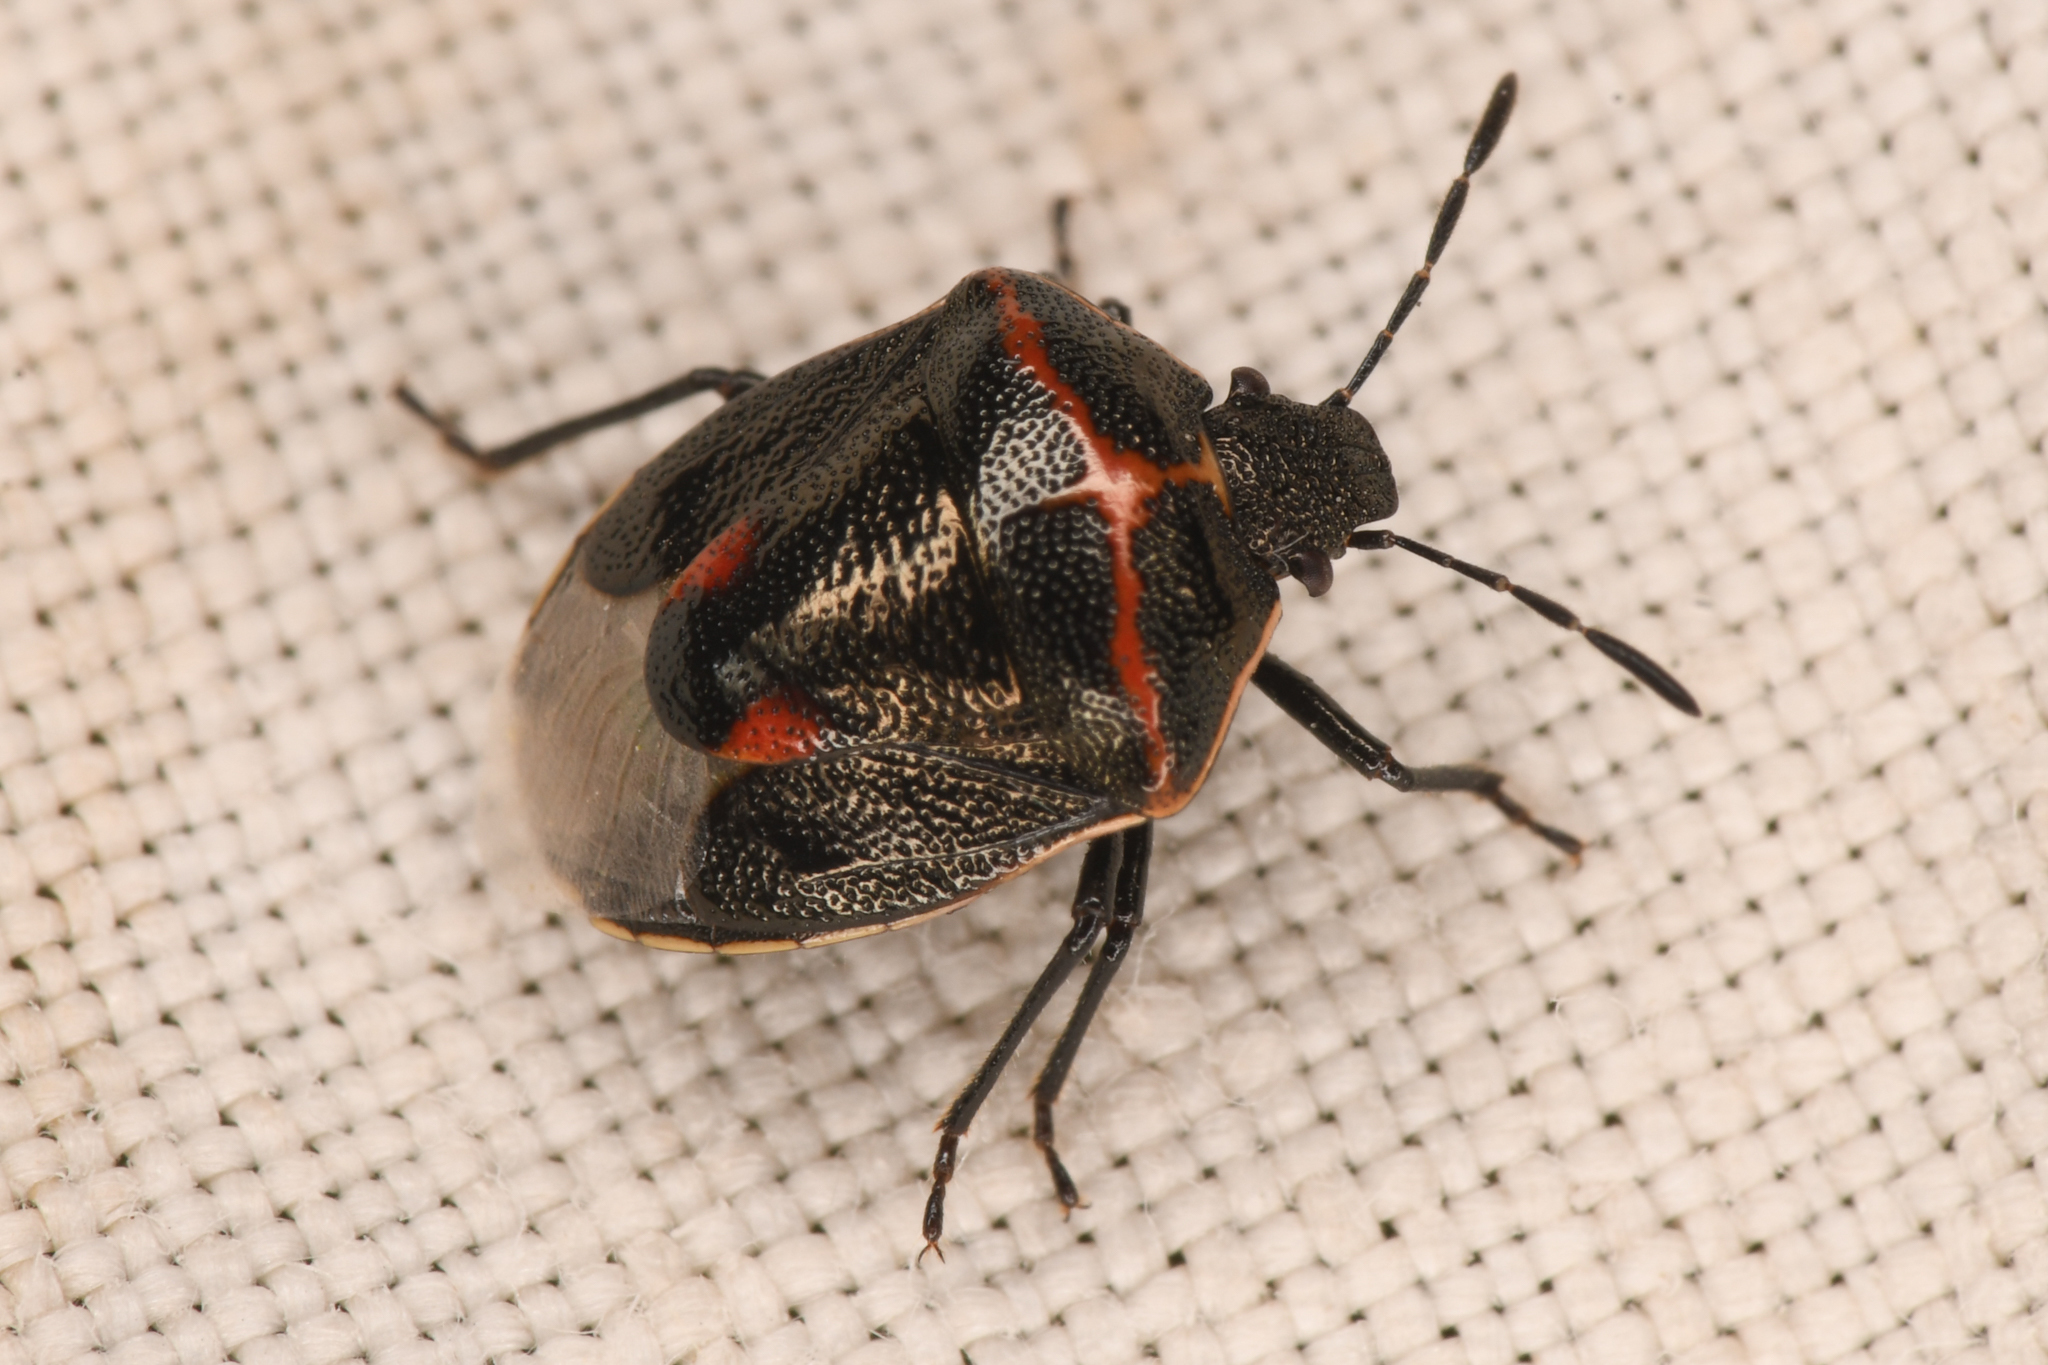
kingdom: Animalia
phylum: Arthropoda
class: Insecta
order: Hemiptera
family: Pentatomidae
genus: Cosmopepla
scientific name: Cosmopepla lintneriana
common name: Twice-stabbed stink bug
